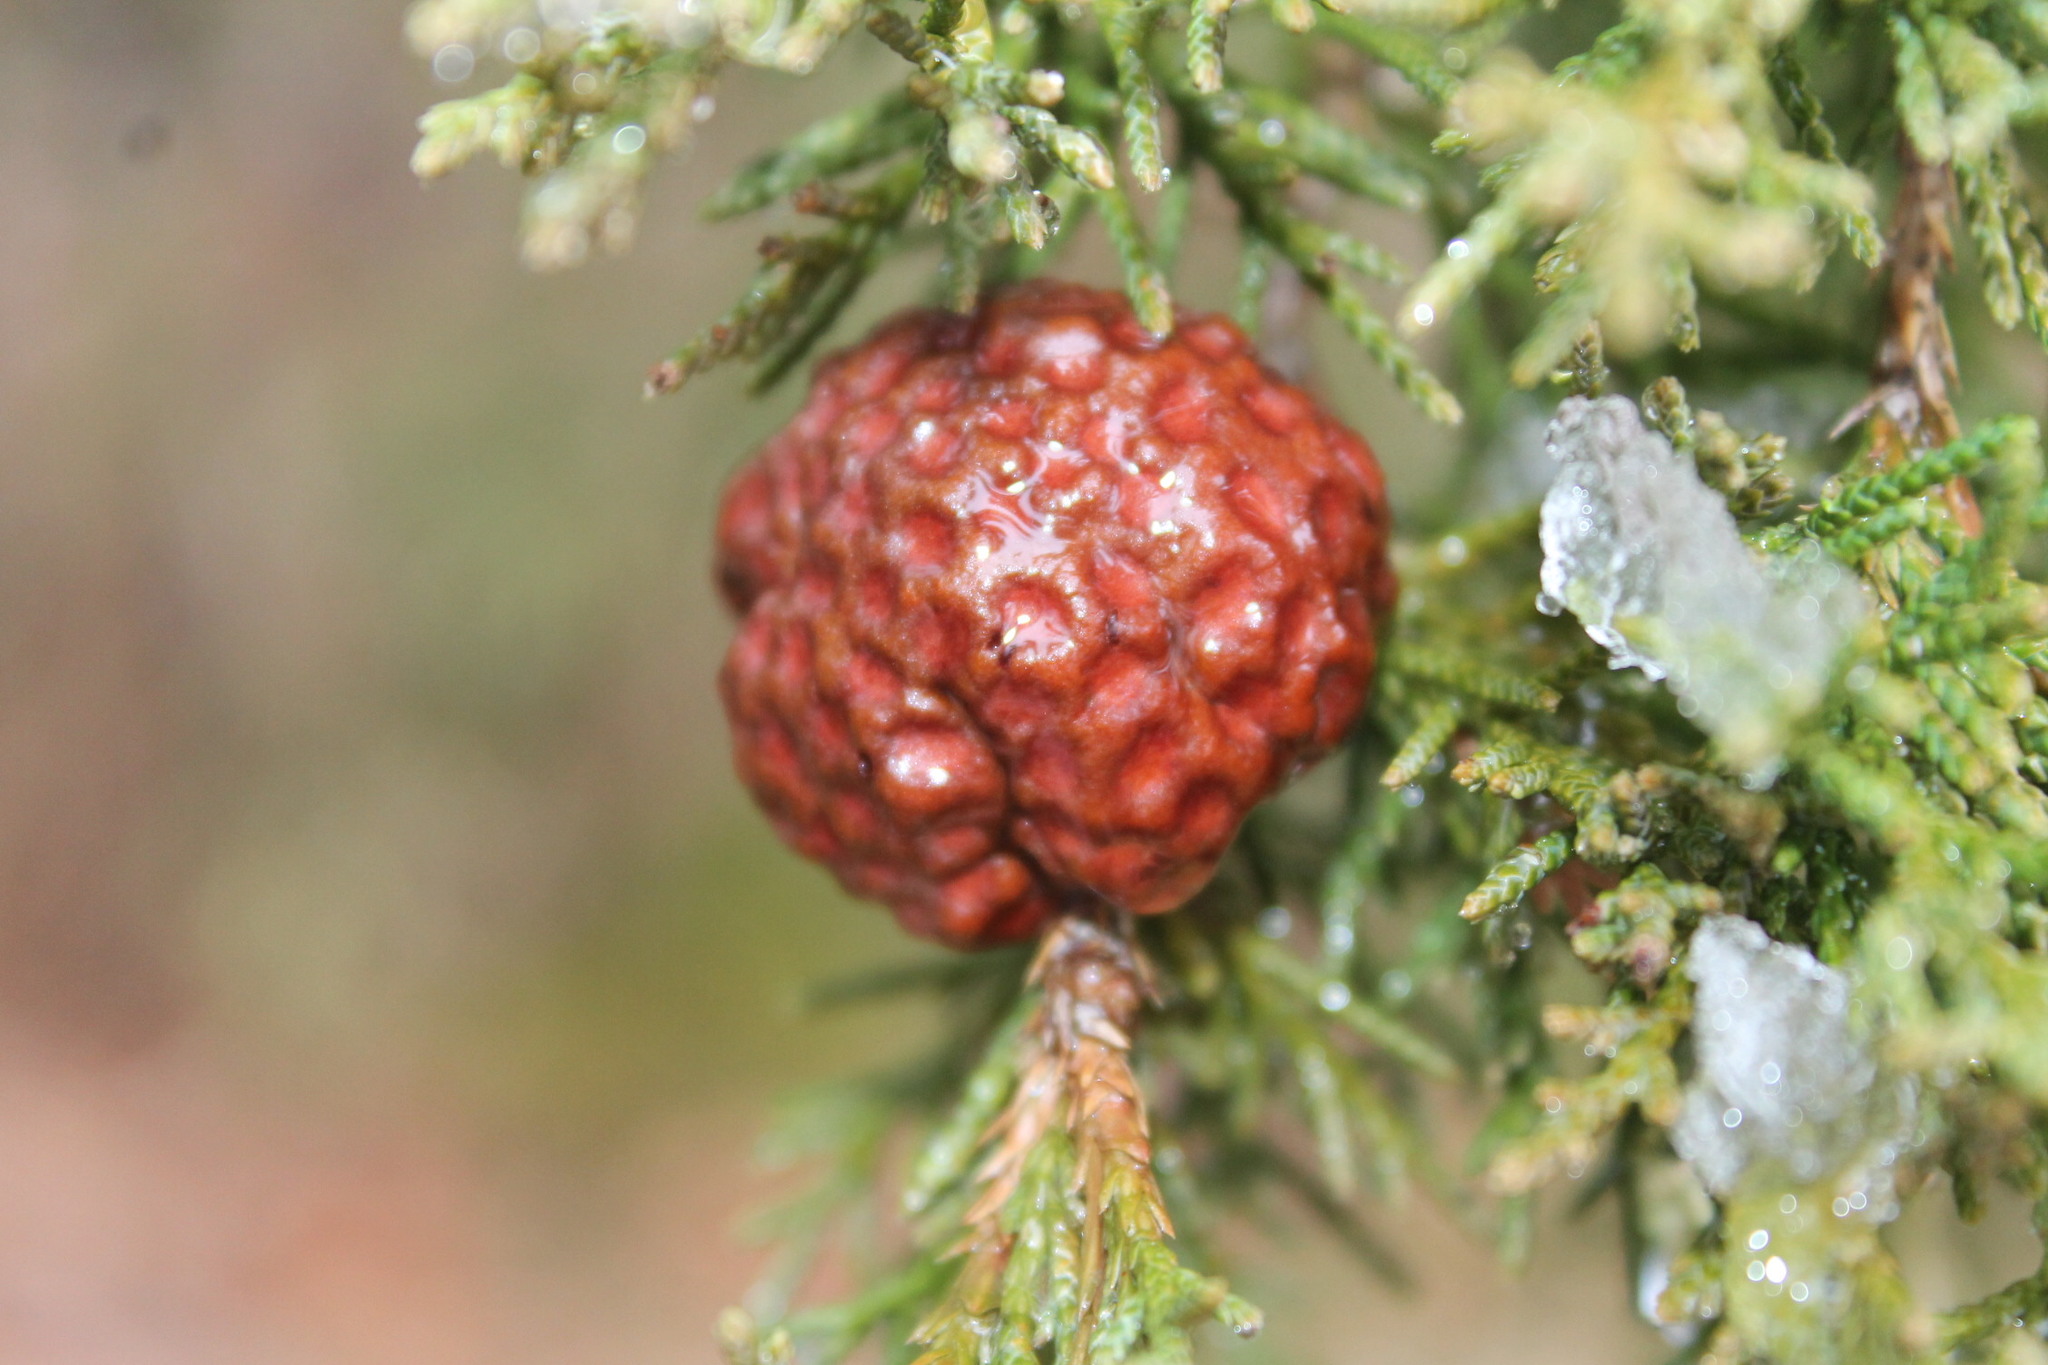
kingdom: Fungi
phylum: Basidiomycota
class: Pucciniomycetes
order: Pucciniales
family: Gymnosporangiaceae
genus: Gymnosporangium
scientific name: Gymnosporangium juniperi-virginianae
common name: Juniper-apple rust
